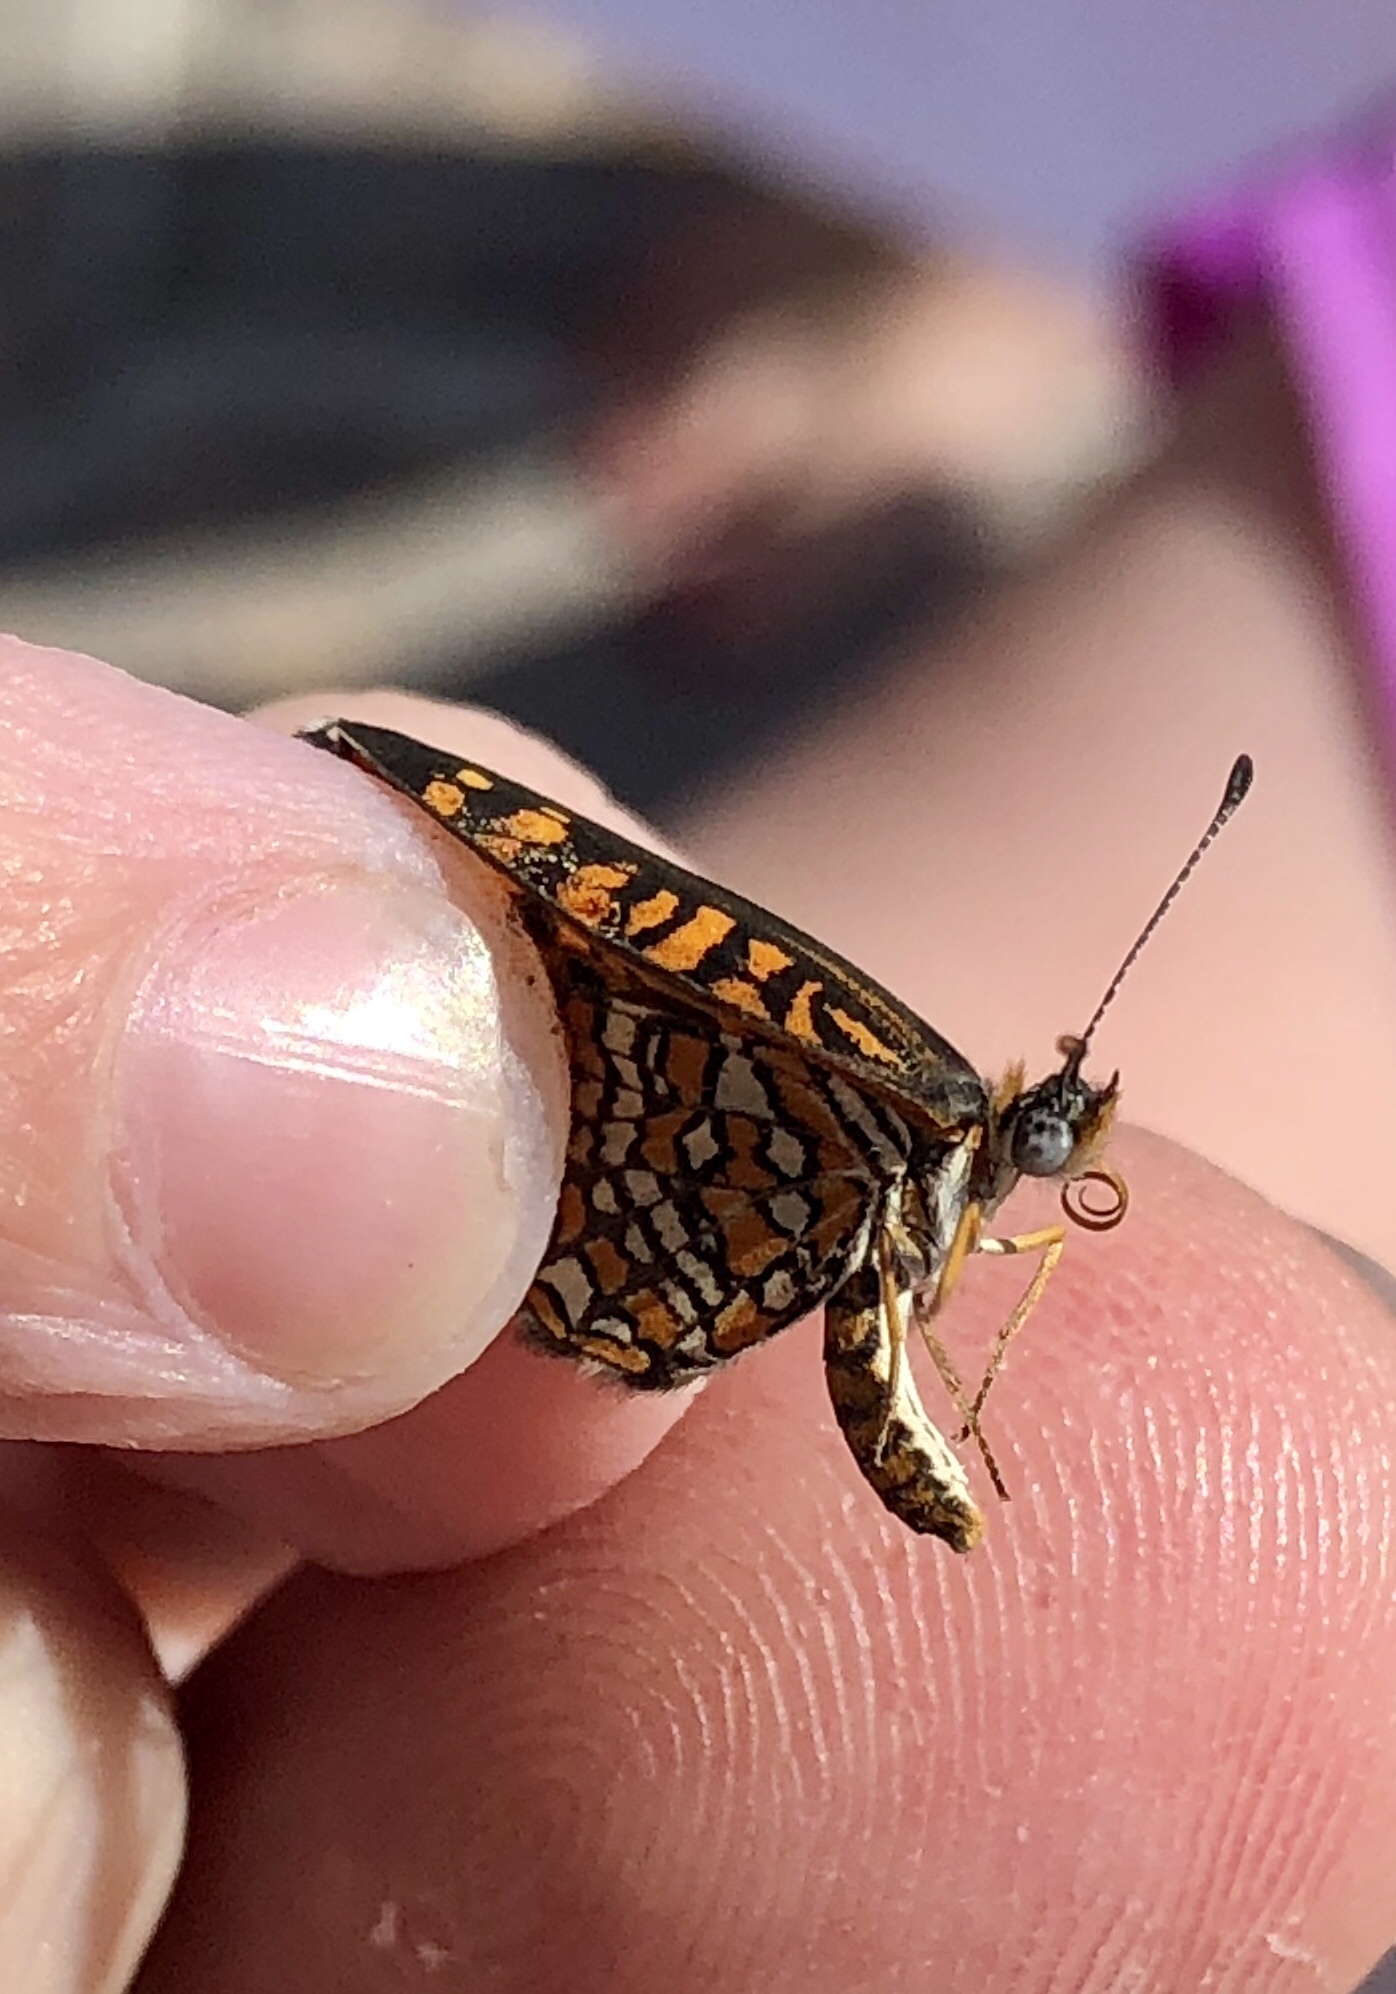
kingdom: Animalia
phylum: Arthropoda
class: Insecta
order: Lepidoptera
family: Nymphalidae
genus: Texola
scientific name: Texola
